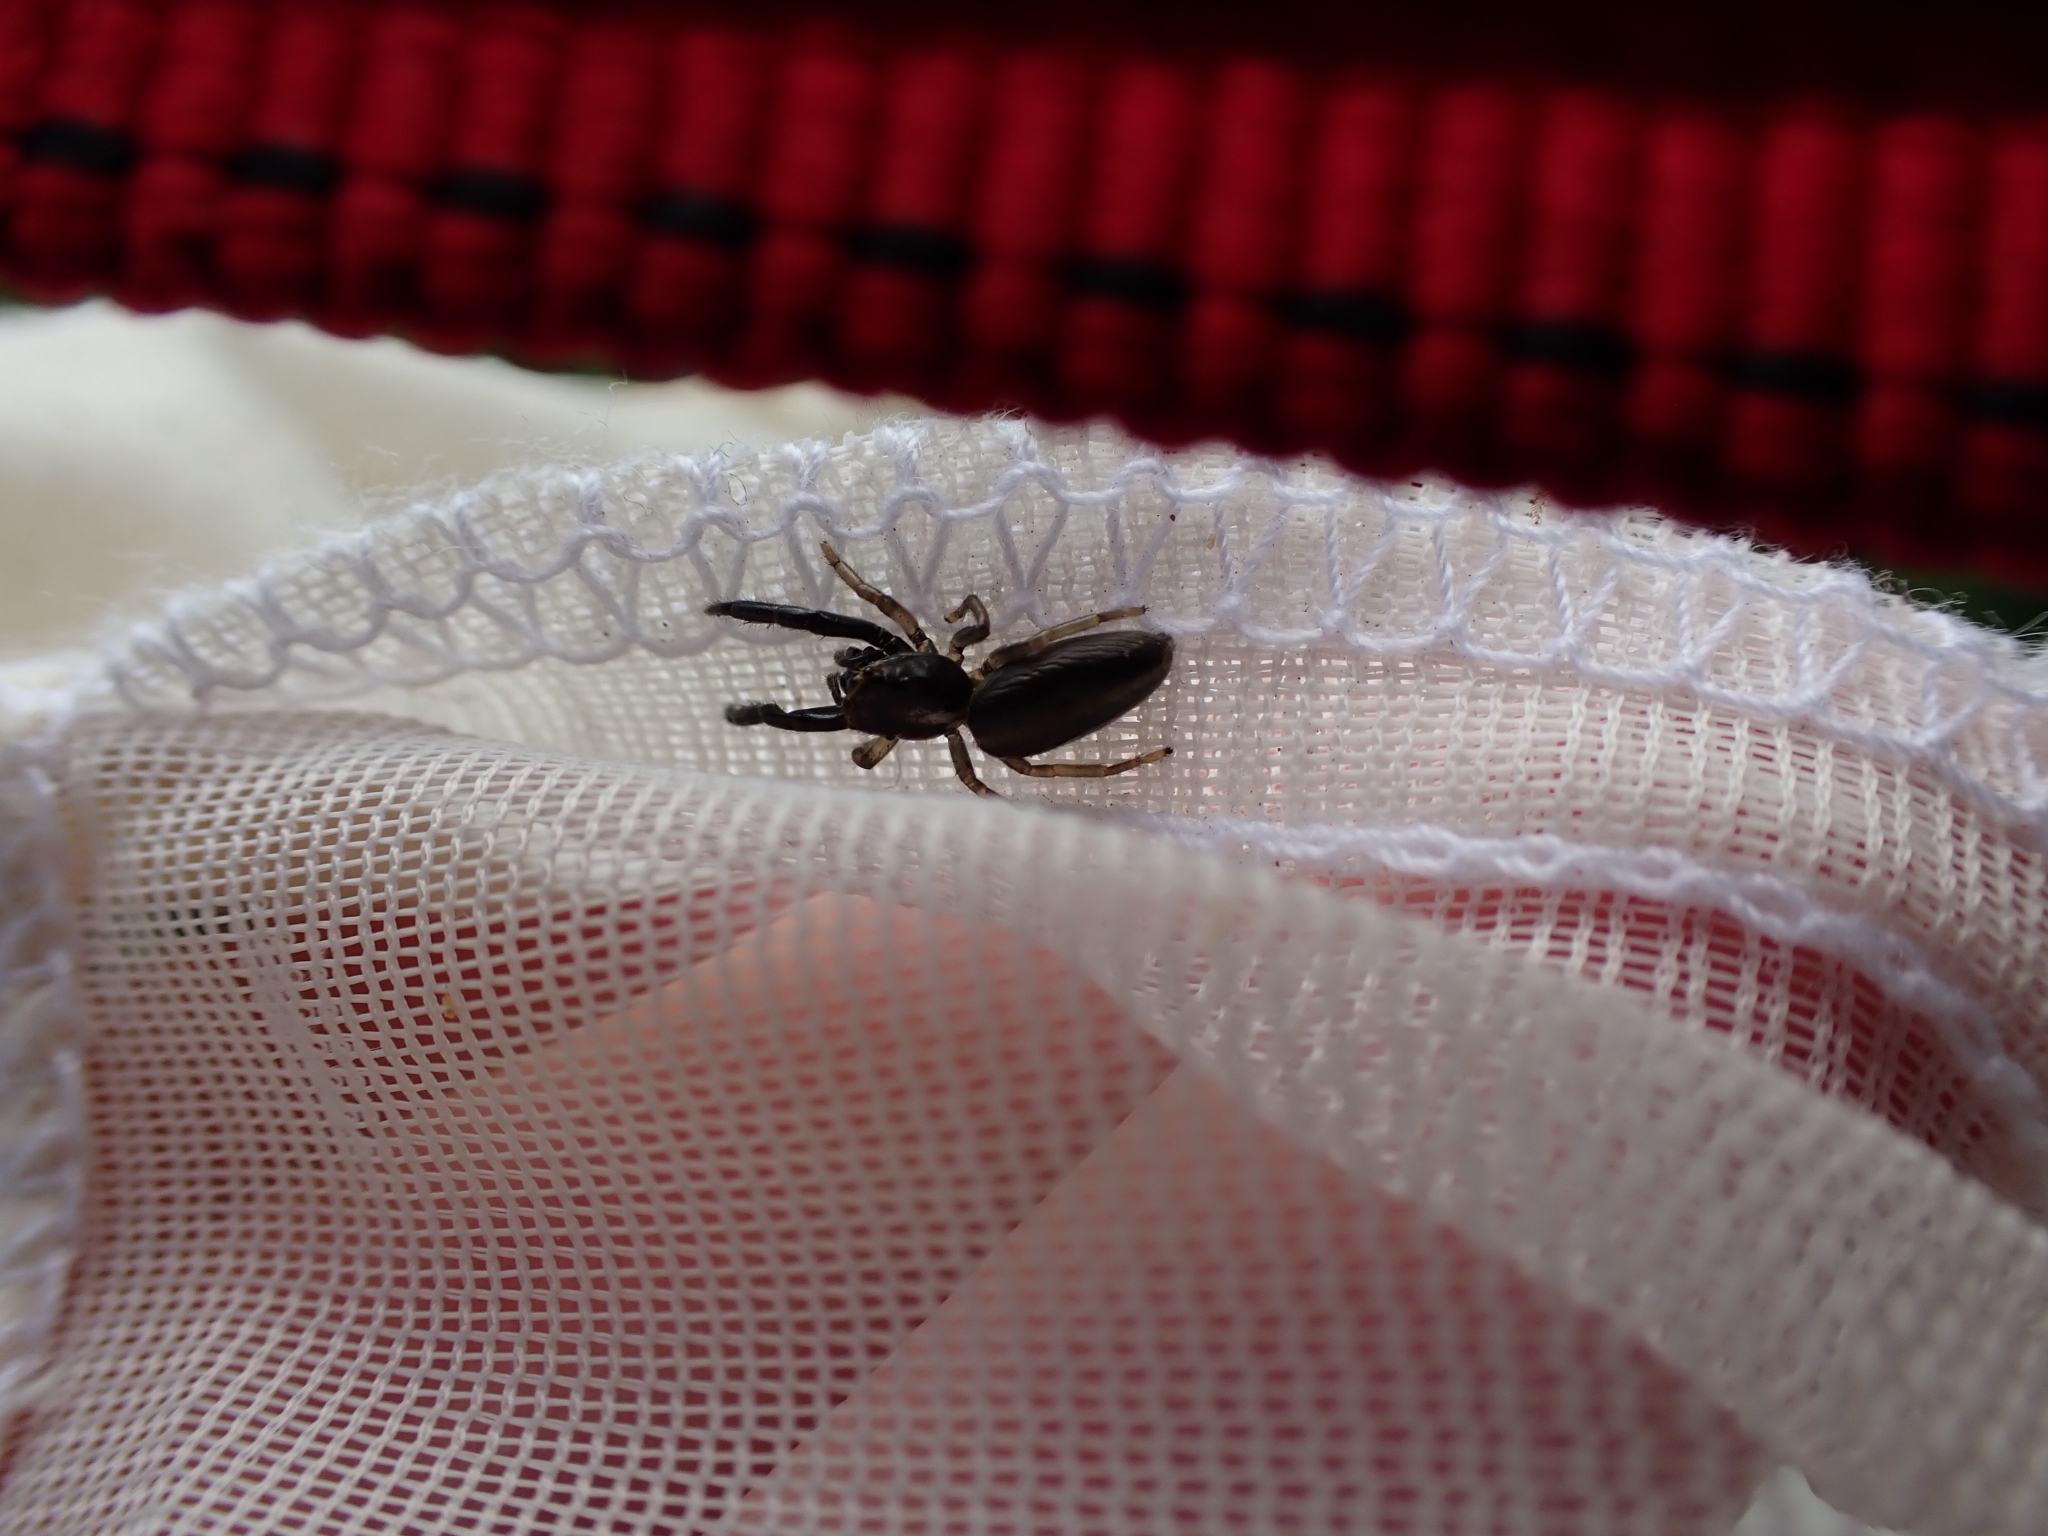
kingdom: Animalia
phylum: Arthropoda
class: Arachnida
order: Araneae
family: Salticidae
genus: Trite
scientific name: Trite planiceps
